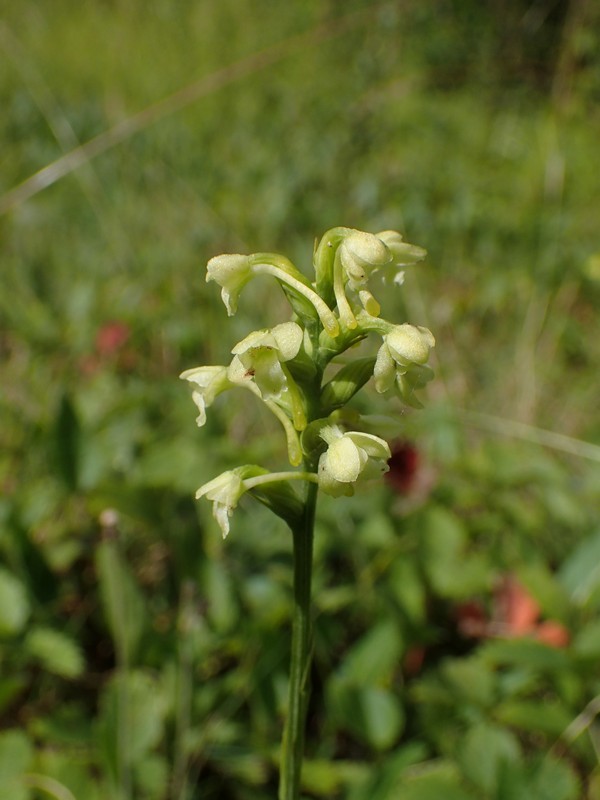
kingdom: Plantae
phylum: Tracheophyta
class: Liliopsida
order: Asparagales
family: Orchidaceae
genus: Platanthera
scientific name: Platanthera clavellata
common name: Club-spur orchid
